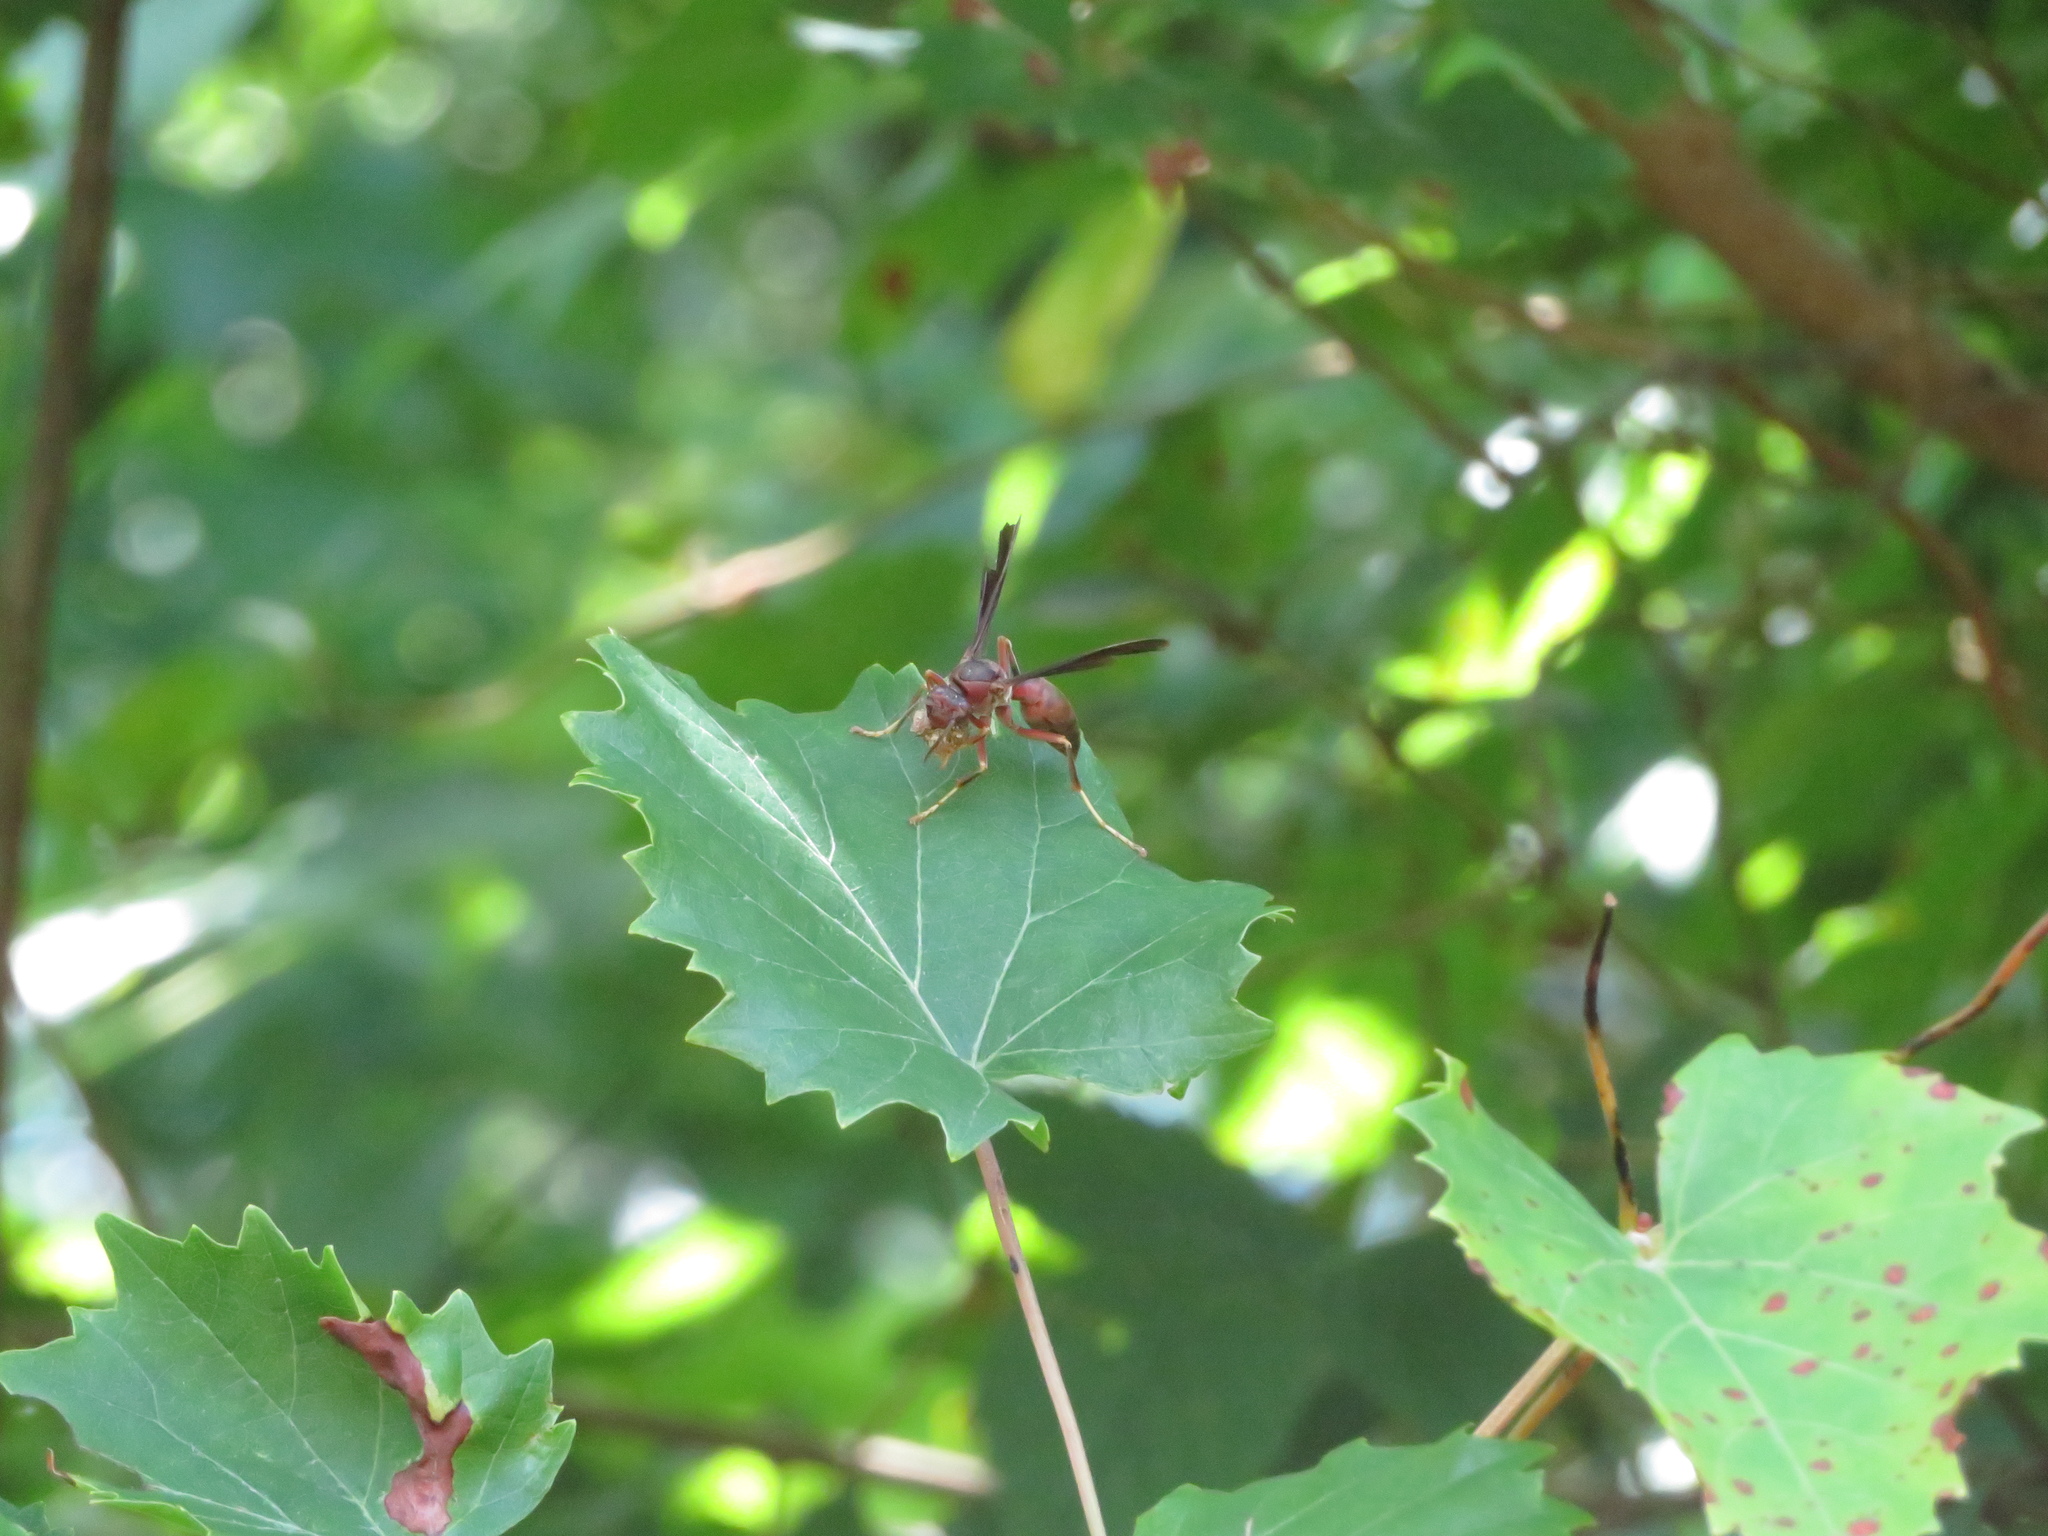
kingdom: Animalia
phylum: Arthropoda
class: Insecta
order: Hymenoptera
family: Eumenidae
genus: Polistes
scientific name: Polistes metricus
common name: Metric paper wasp
